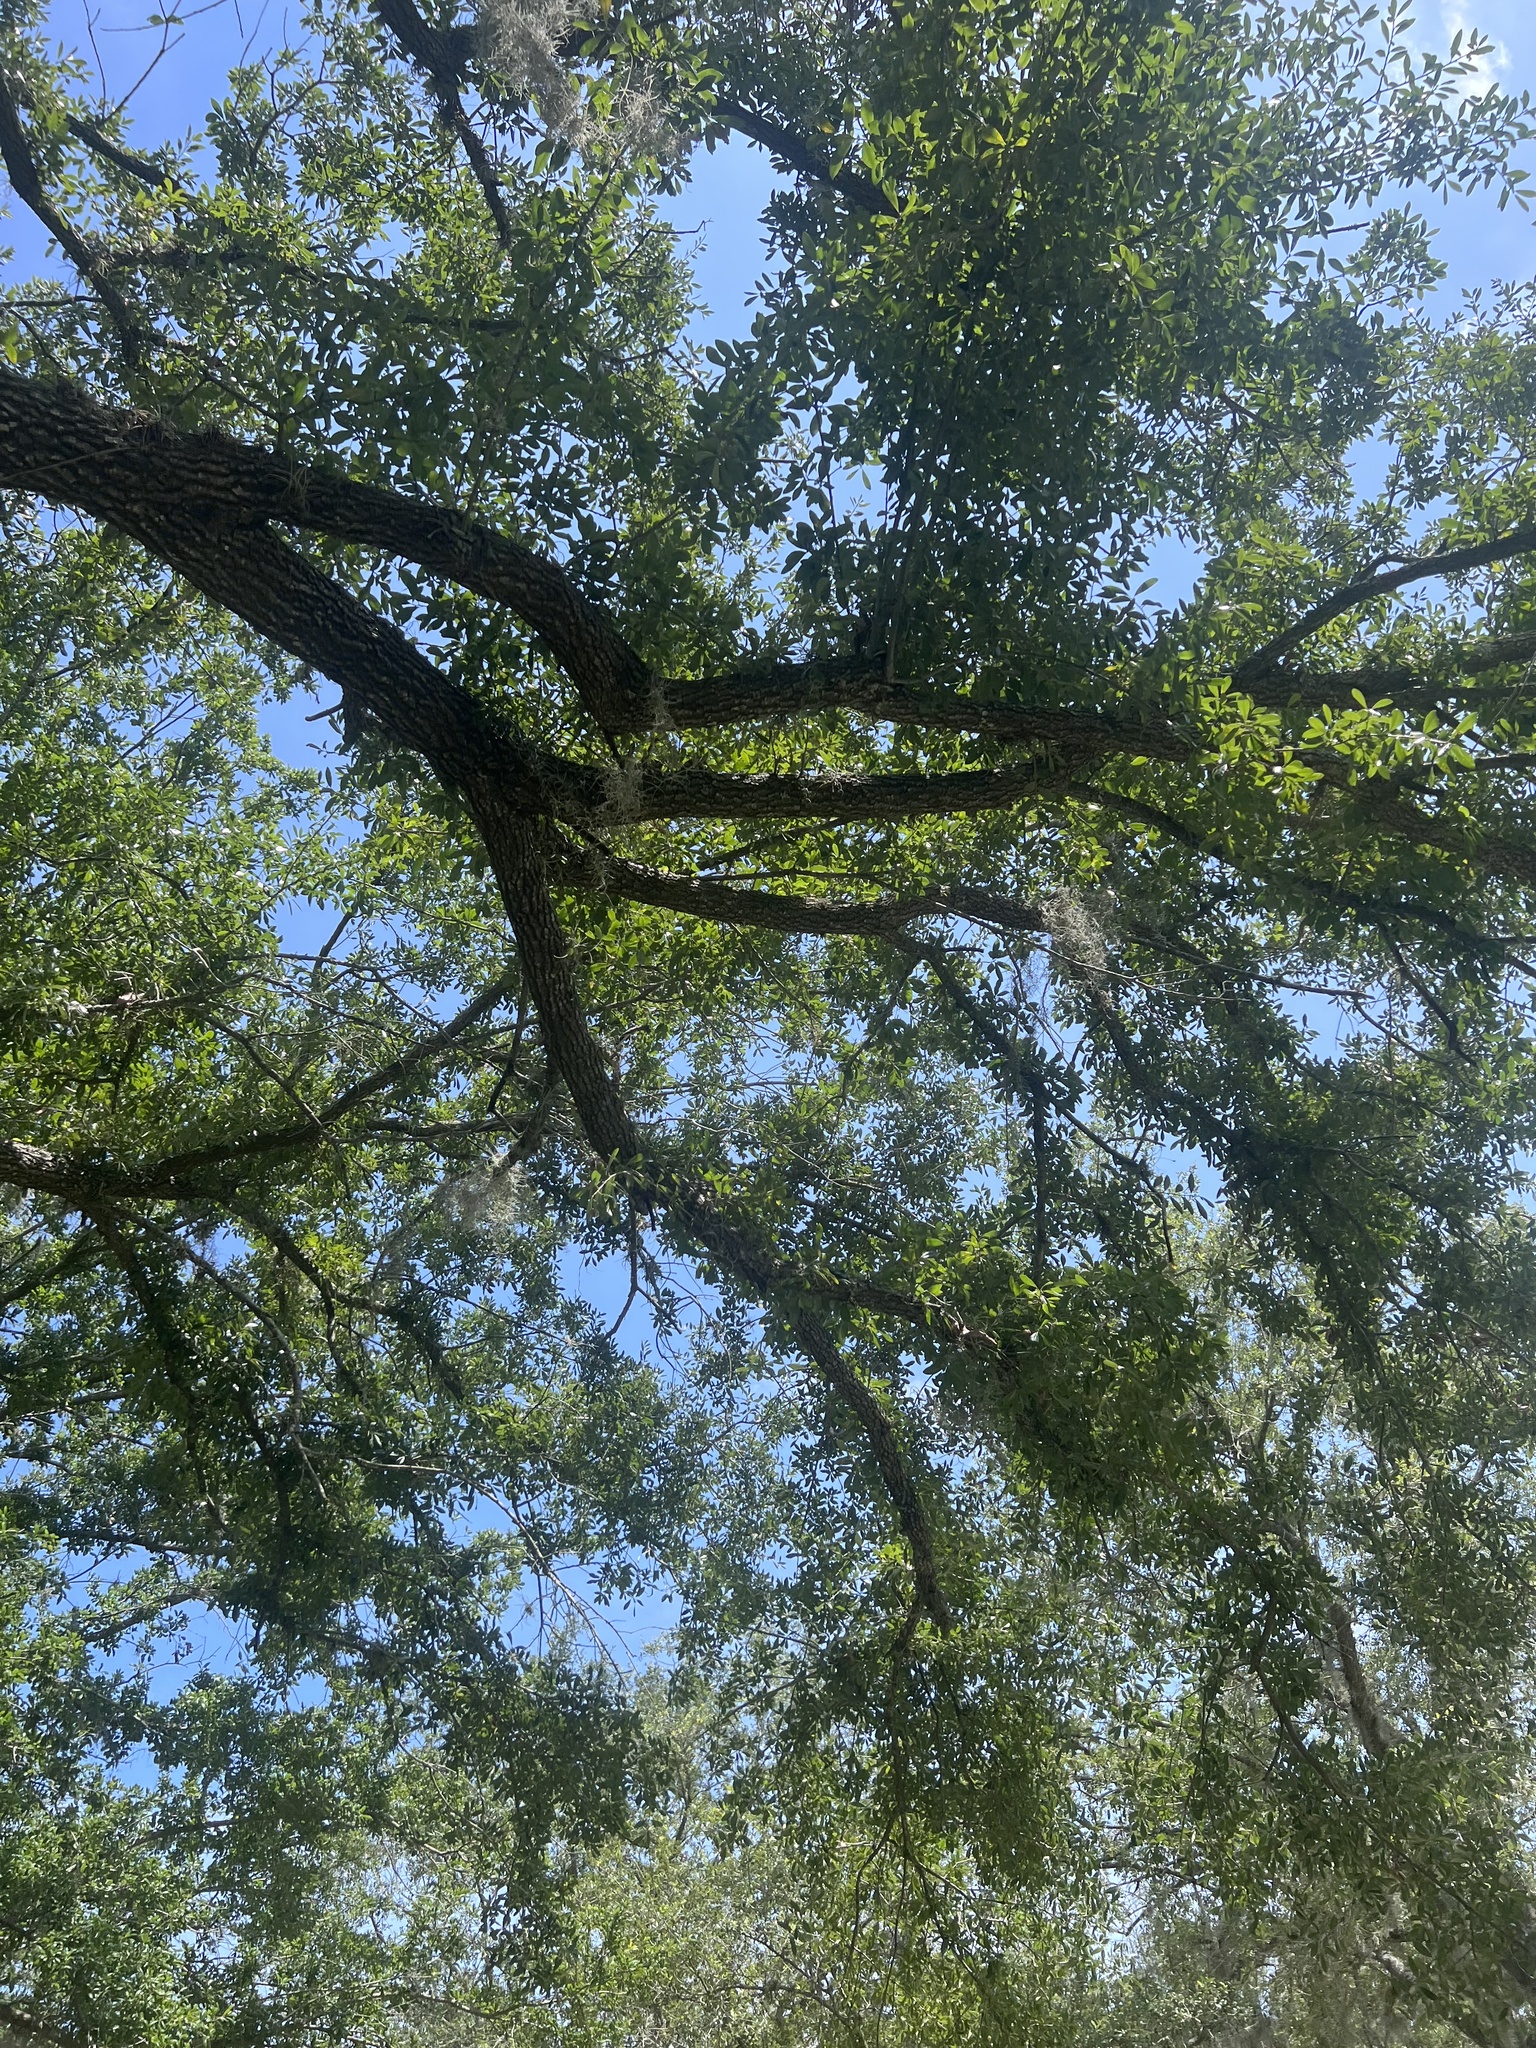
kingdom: Plantae
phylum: Tracheophyta
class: Magnoliopsida
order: Santalales
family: Viscaceae
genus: Phoradendron
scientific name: Phoradendron leucarpum
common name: Pacific mistletoe
